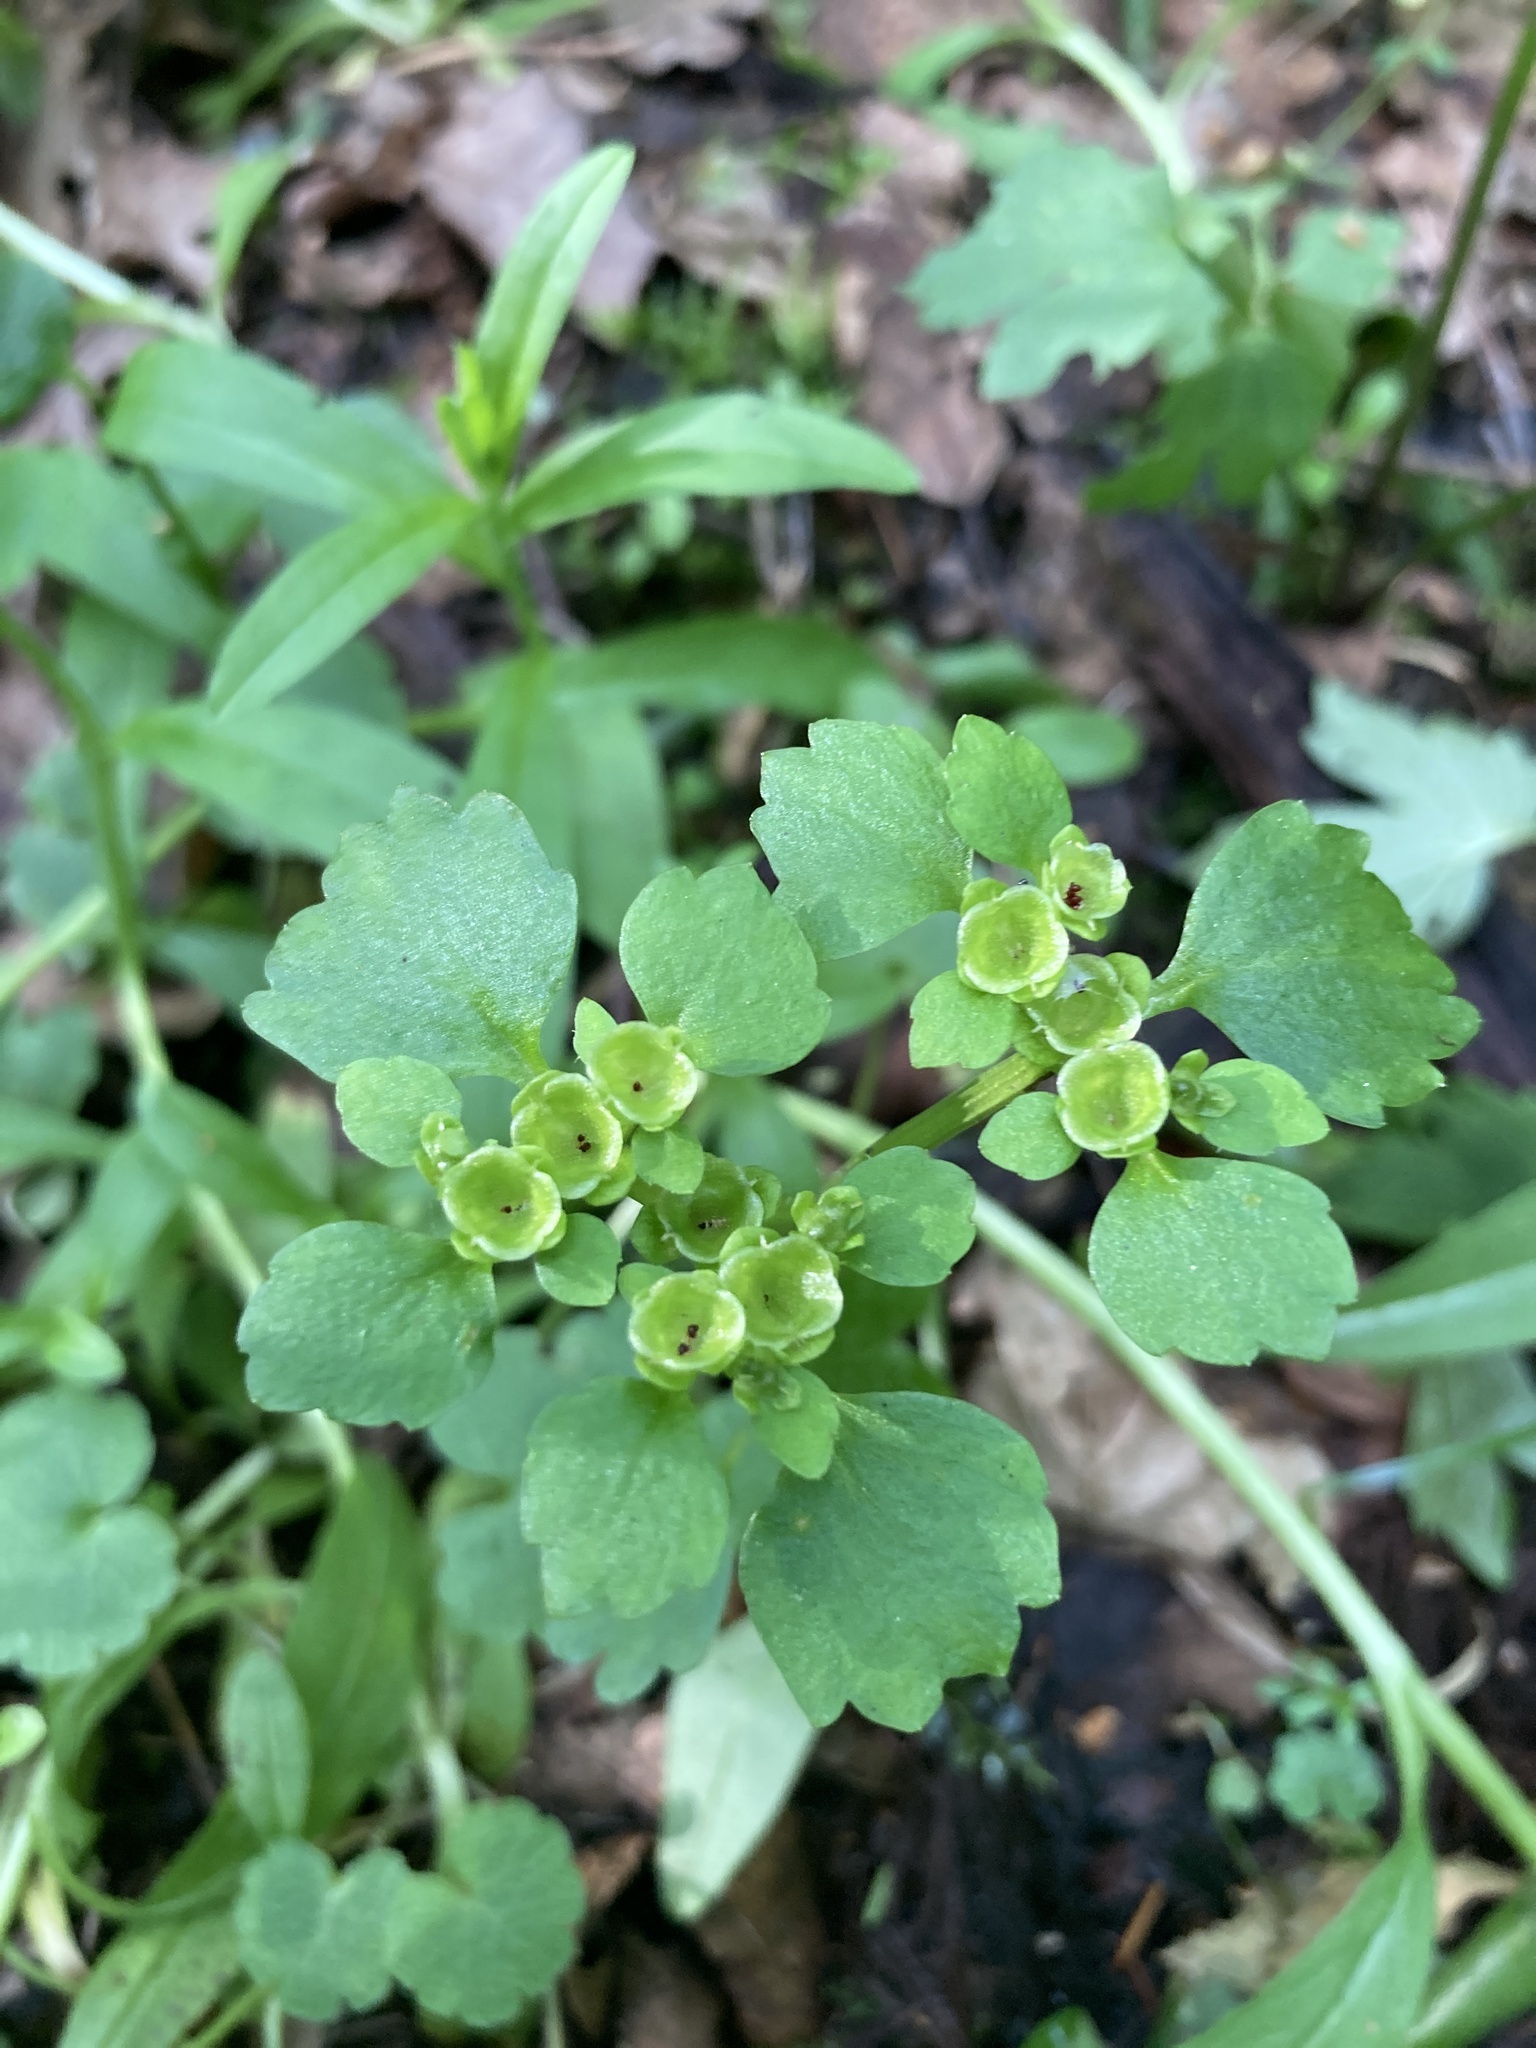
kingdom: Plantae
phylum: Tracheophyta
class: Magnoliopsida
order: Saxifragales
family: Saxifragaceae
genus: Chrysosplenium
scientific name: Chrysosplenium alternifolium
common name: Alternate-leaved golden-saxifrage
